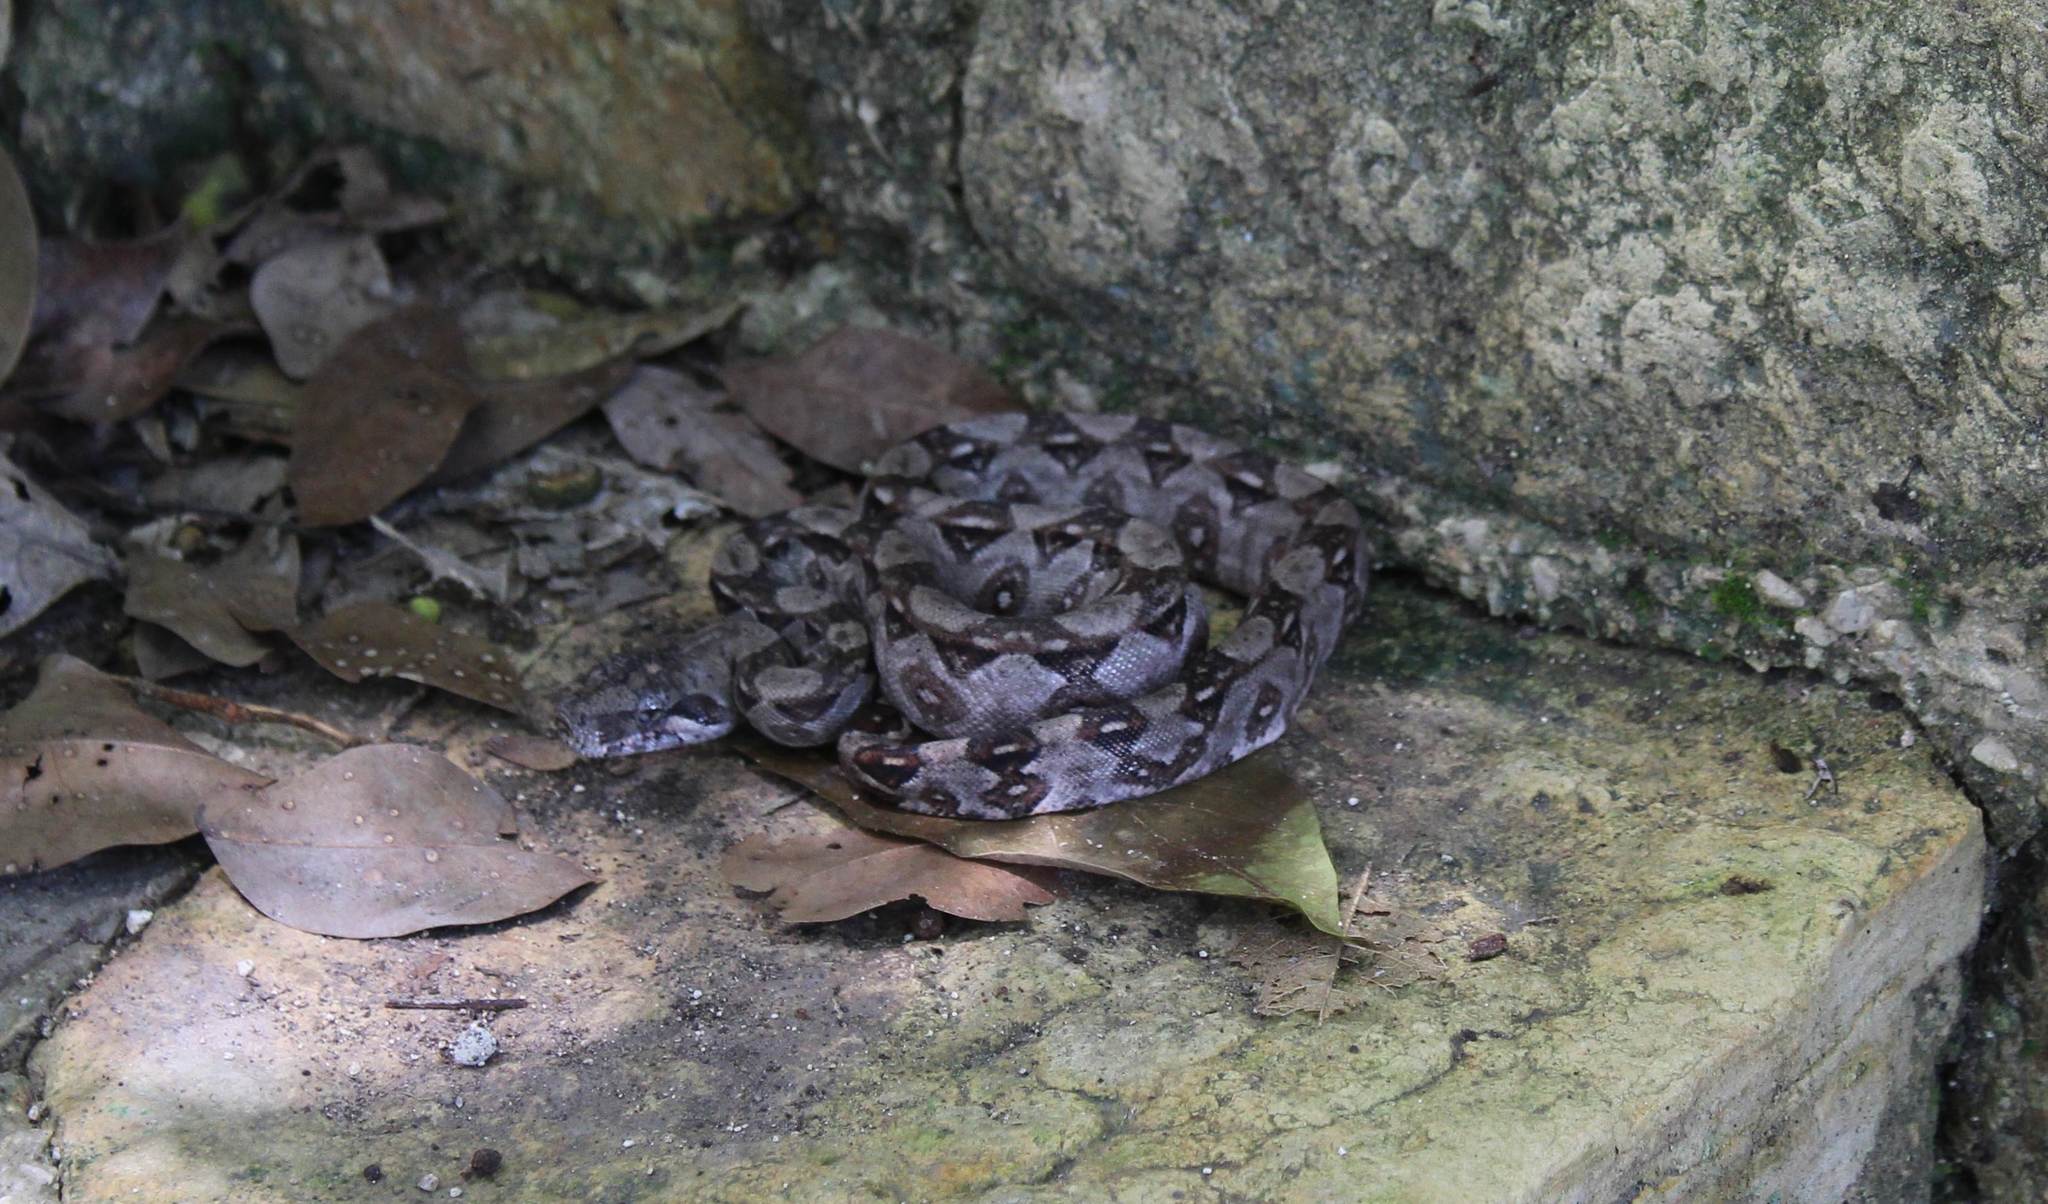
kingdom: Animalia
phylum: Chordata
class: Squamata
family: Boidae
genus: Boa
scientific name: Boa imperator
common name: Central american boa
